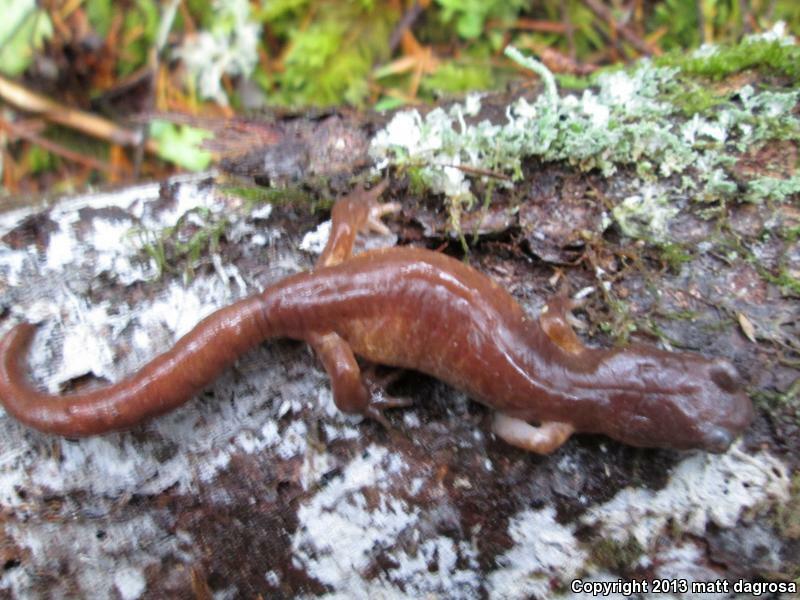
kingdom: Animalia
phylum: Chordata
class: Amphibia
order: Caudata
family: Plethodontidae
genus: Ensatina
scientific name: Ensatina eschscholtzii
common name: Ensatina
